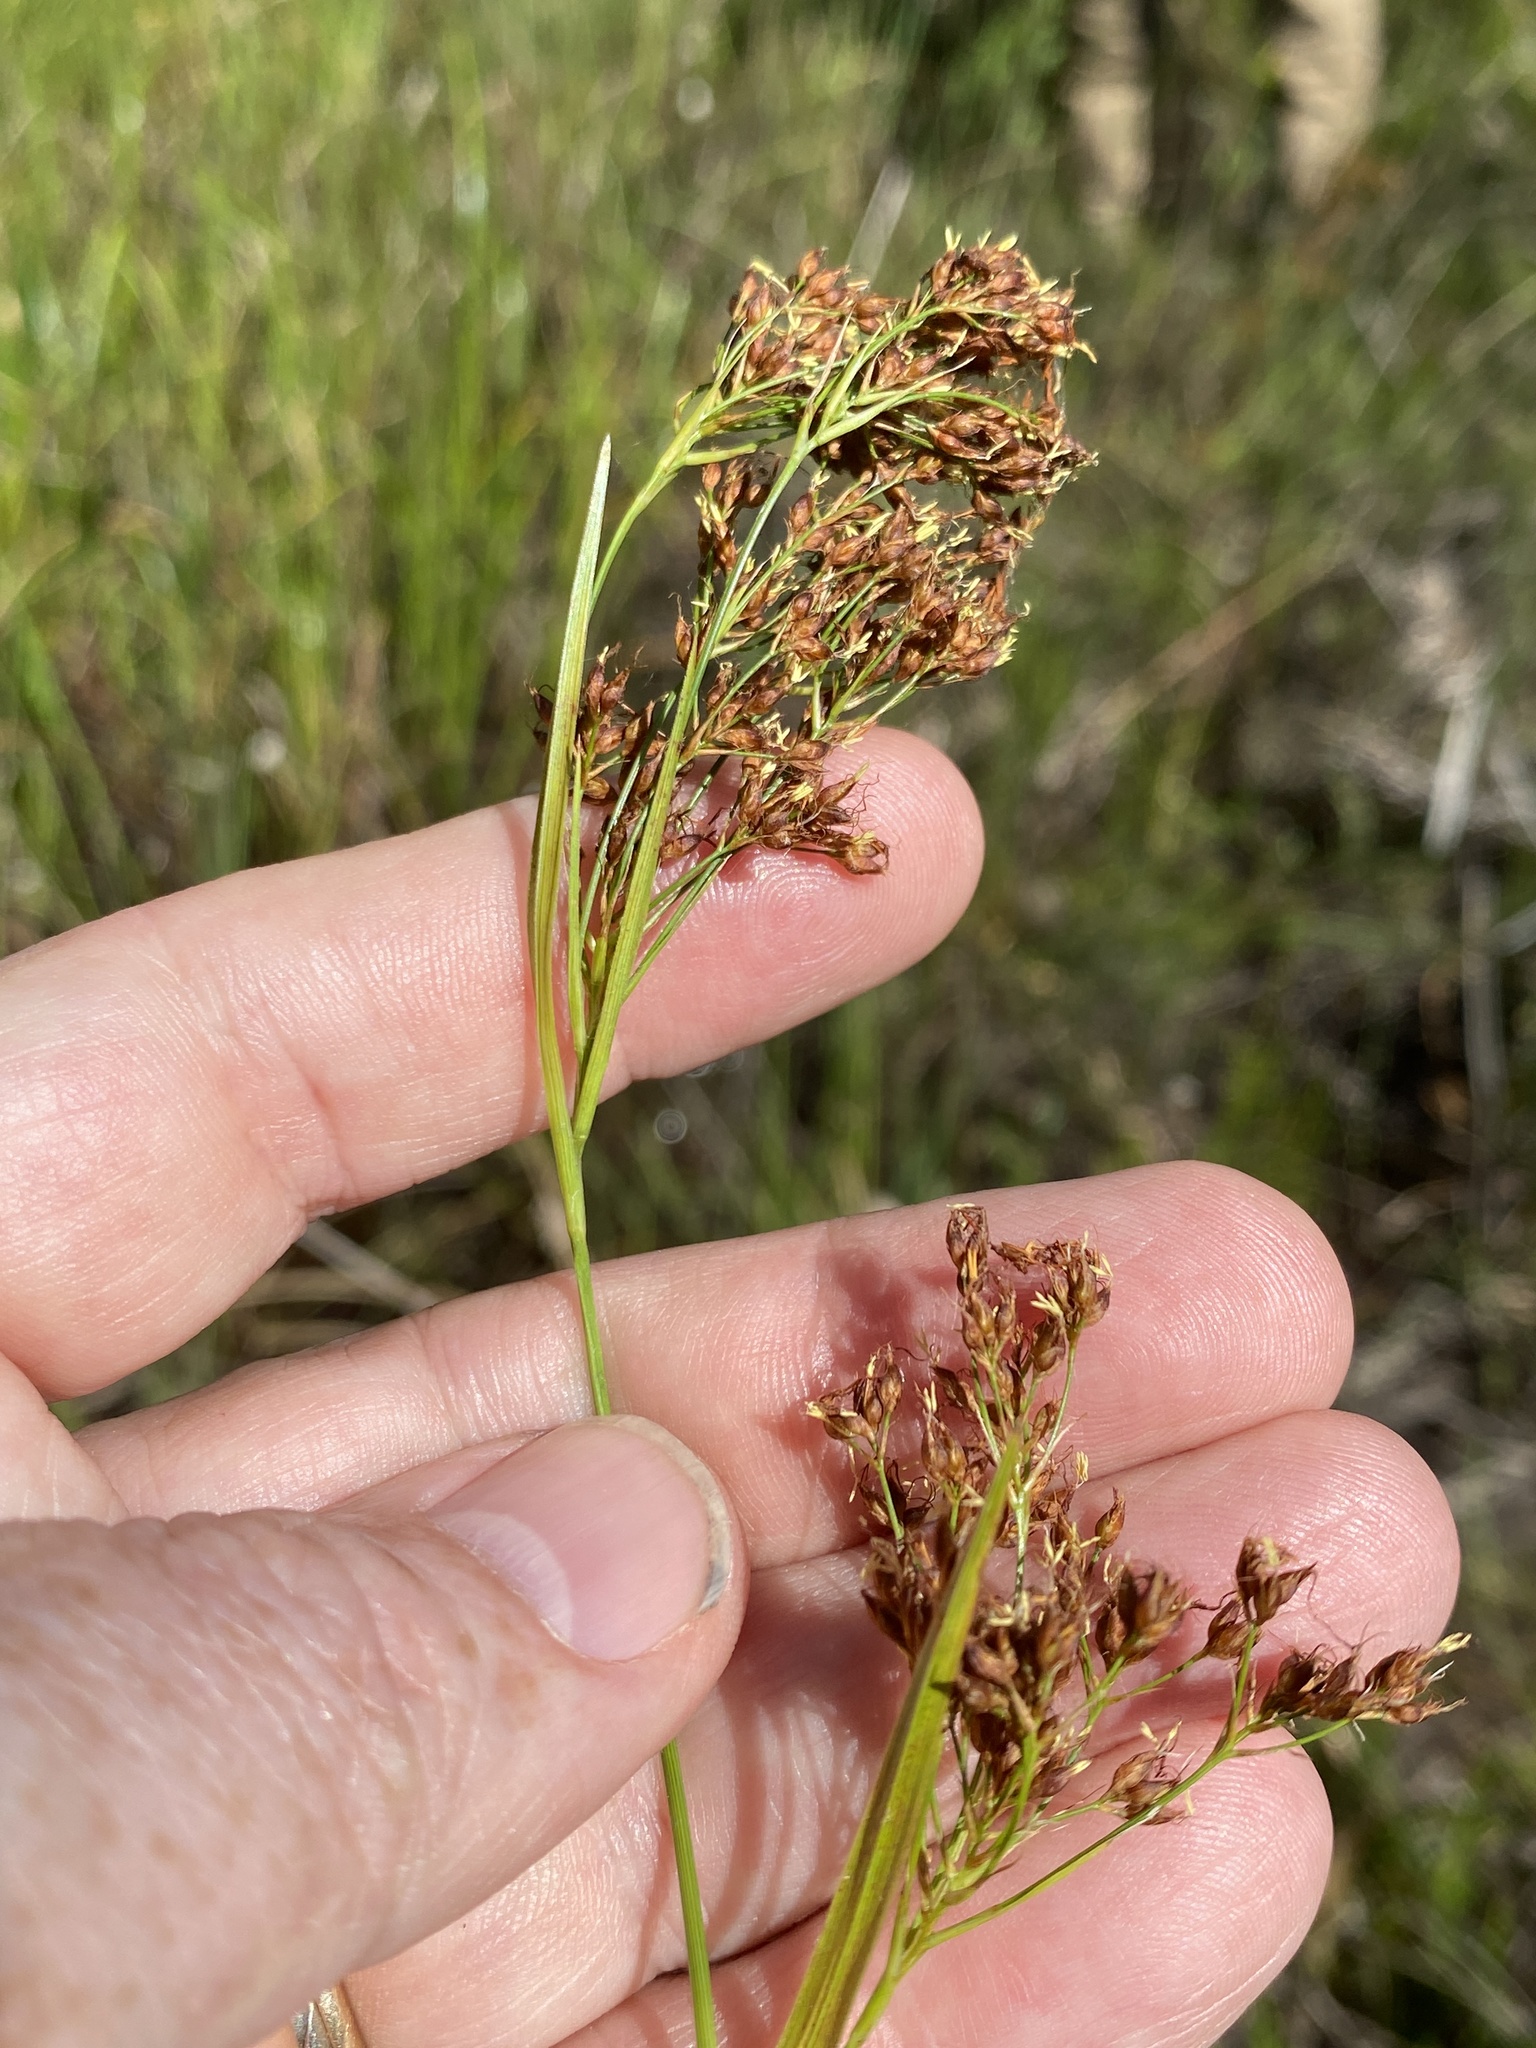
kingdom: Plantae
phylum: Tracheophyta
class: Liliopsida
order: Poales
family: Cyperaceae
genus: Rhynchospora
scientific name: Rhynchospora elliottii
